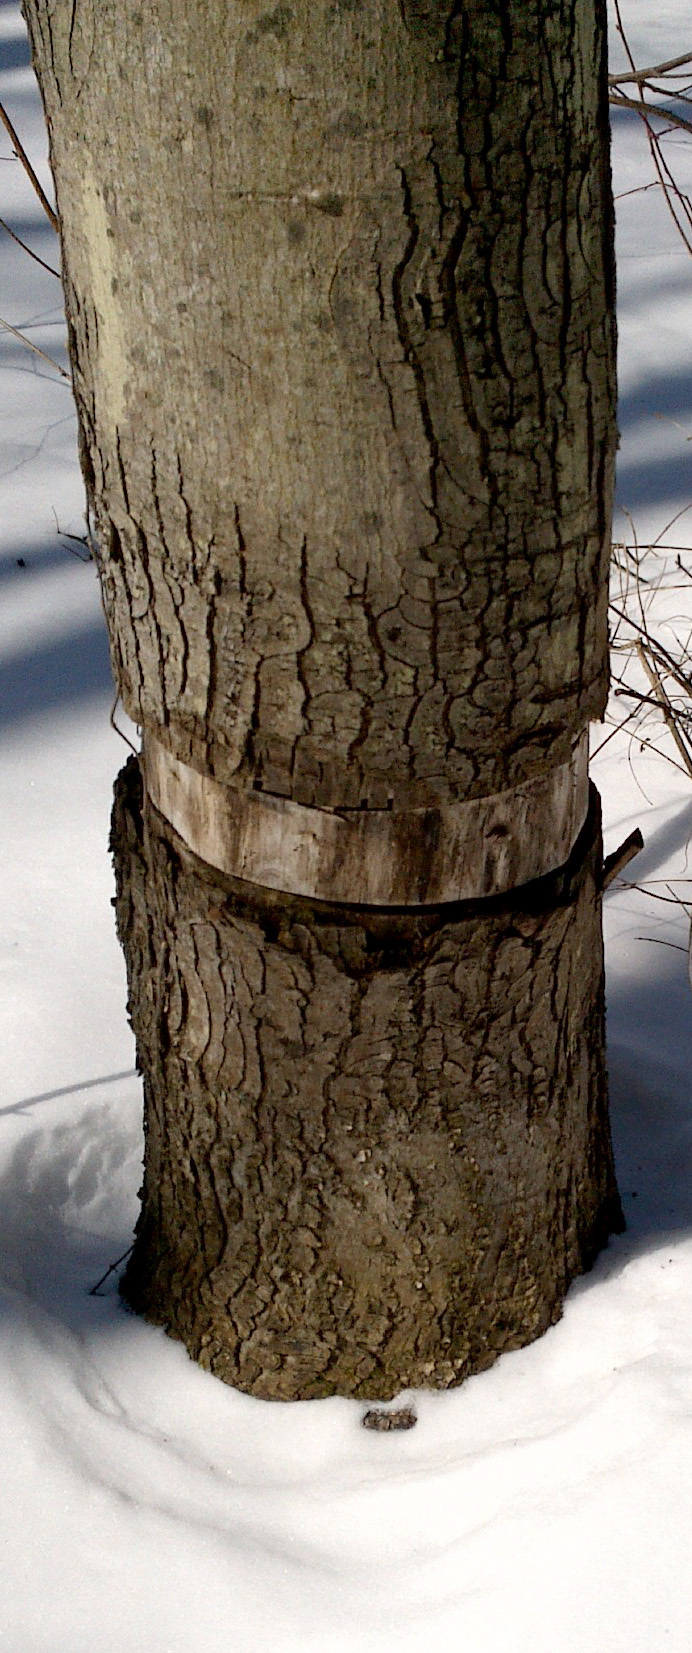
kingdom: Plantae
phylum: Tracheophyta
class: Magnoliopsida
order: Sapindales
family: Sapindaceae
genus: Acer
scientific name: Acer rubrum
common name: Red maple
